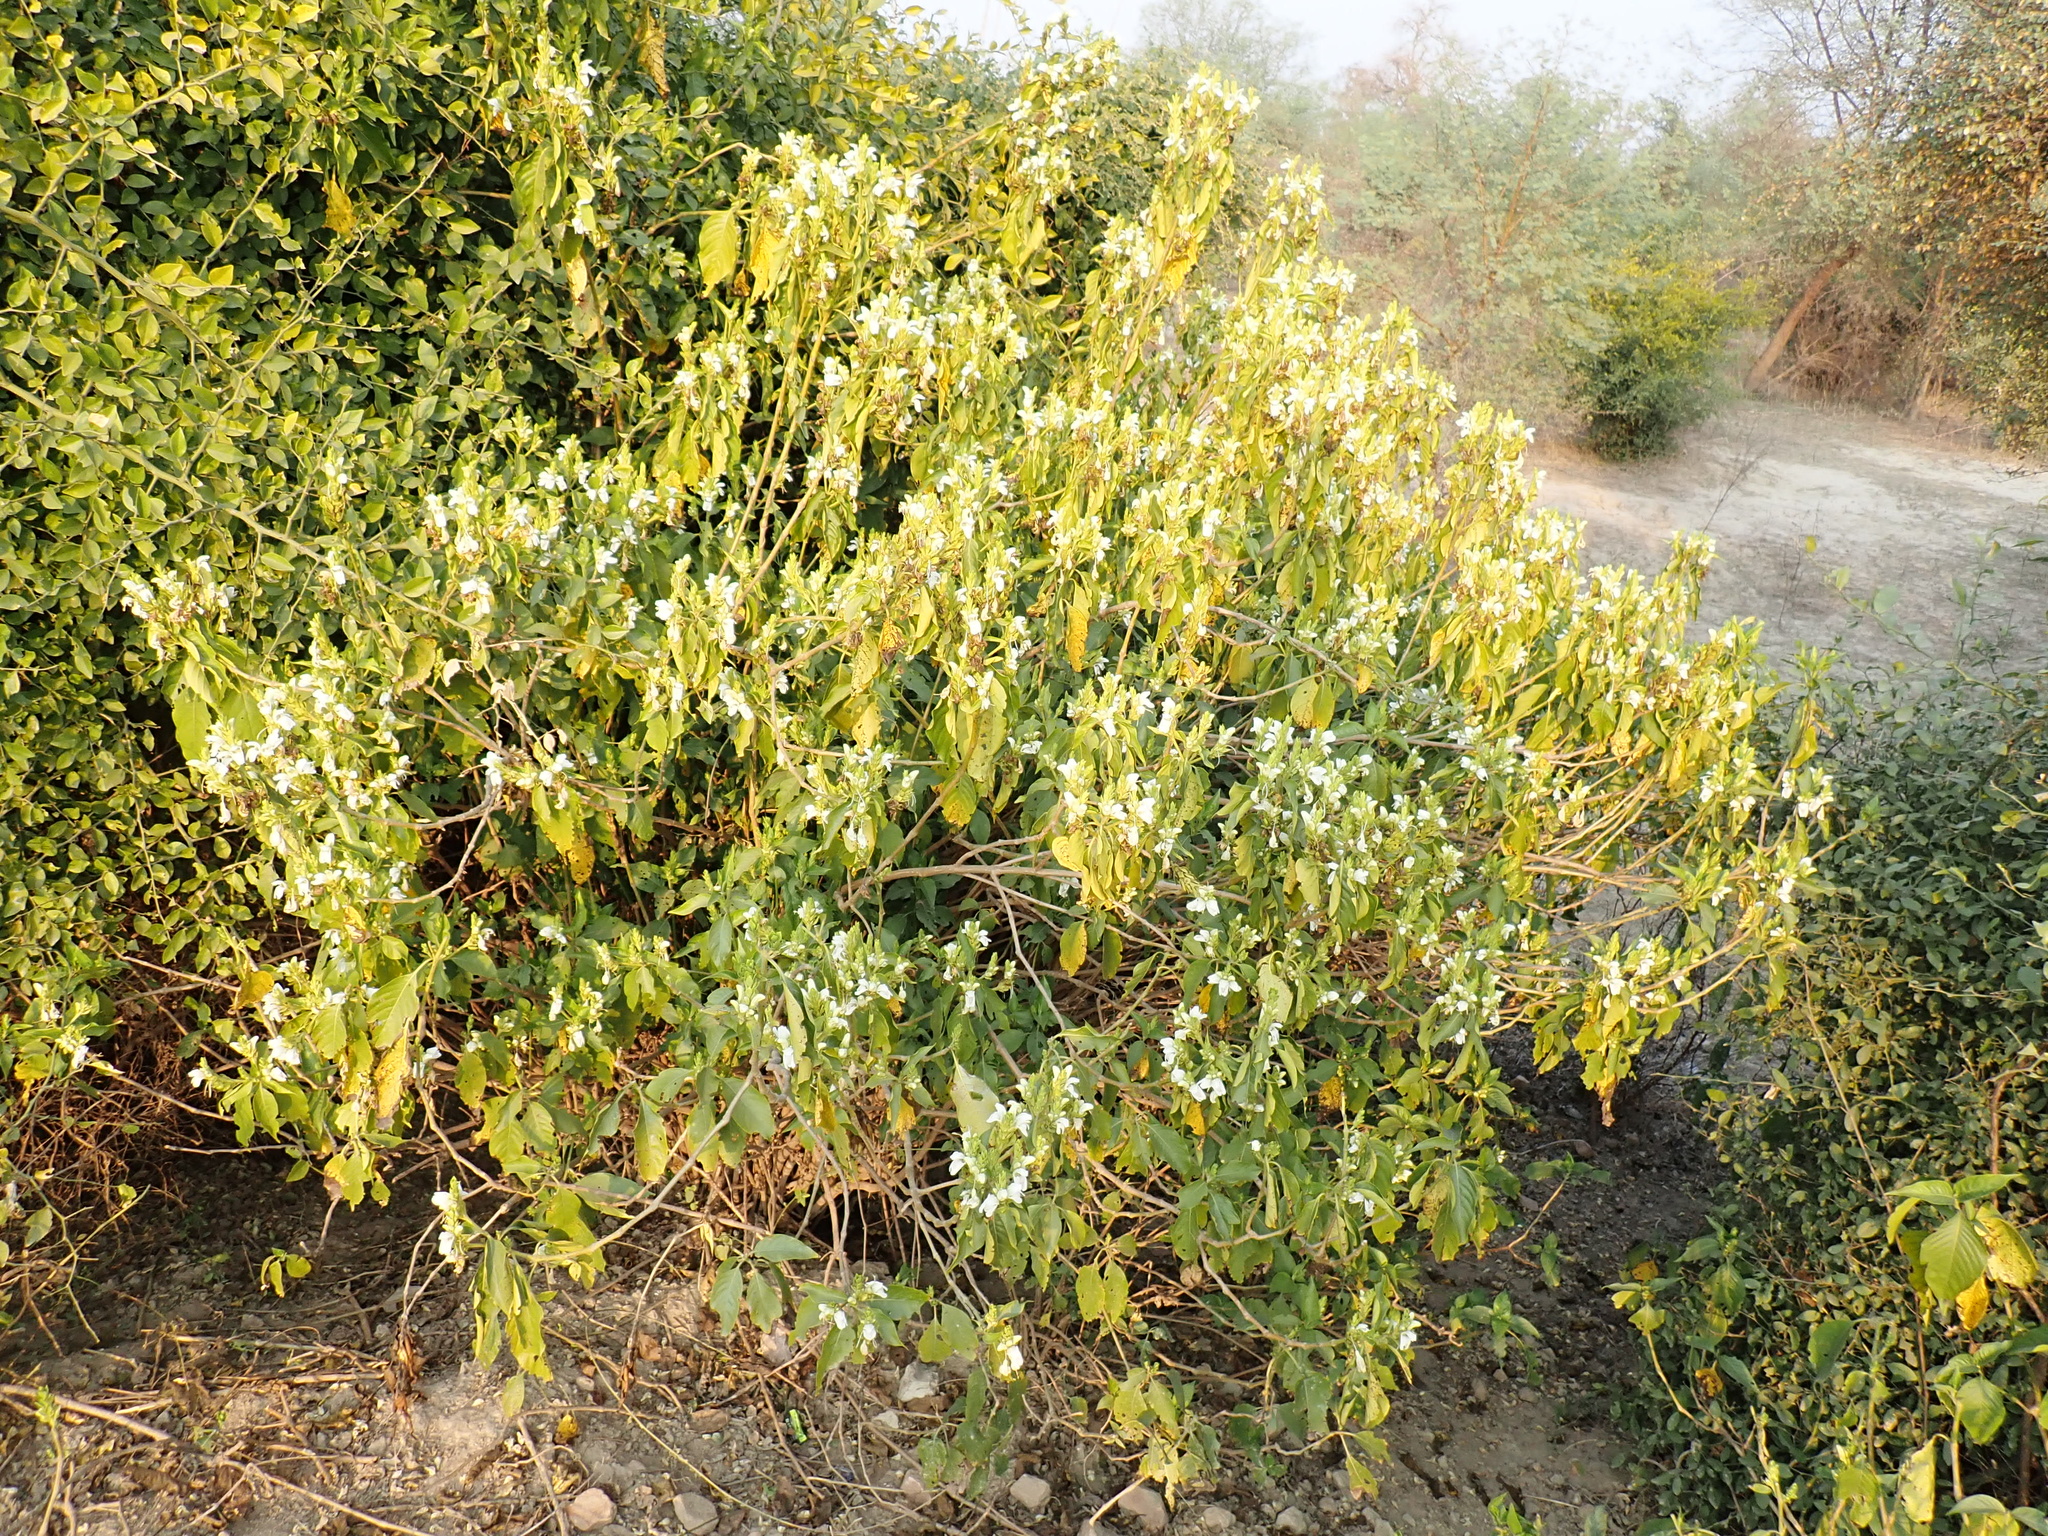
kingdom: Plantae
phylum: Tracheophyta
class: Magnoliopsida
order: Lamiales
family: Acanthaceae
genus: Justicia
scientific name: Justicia adhatoda
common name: Malabar nut
